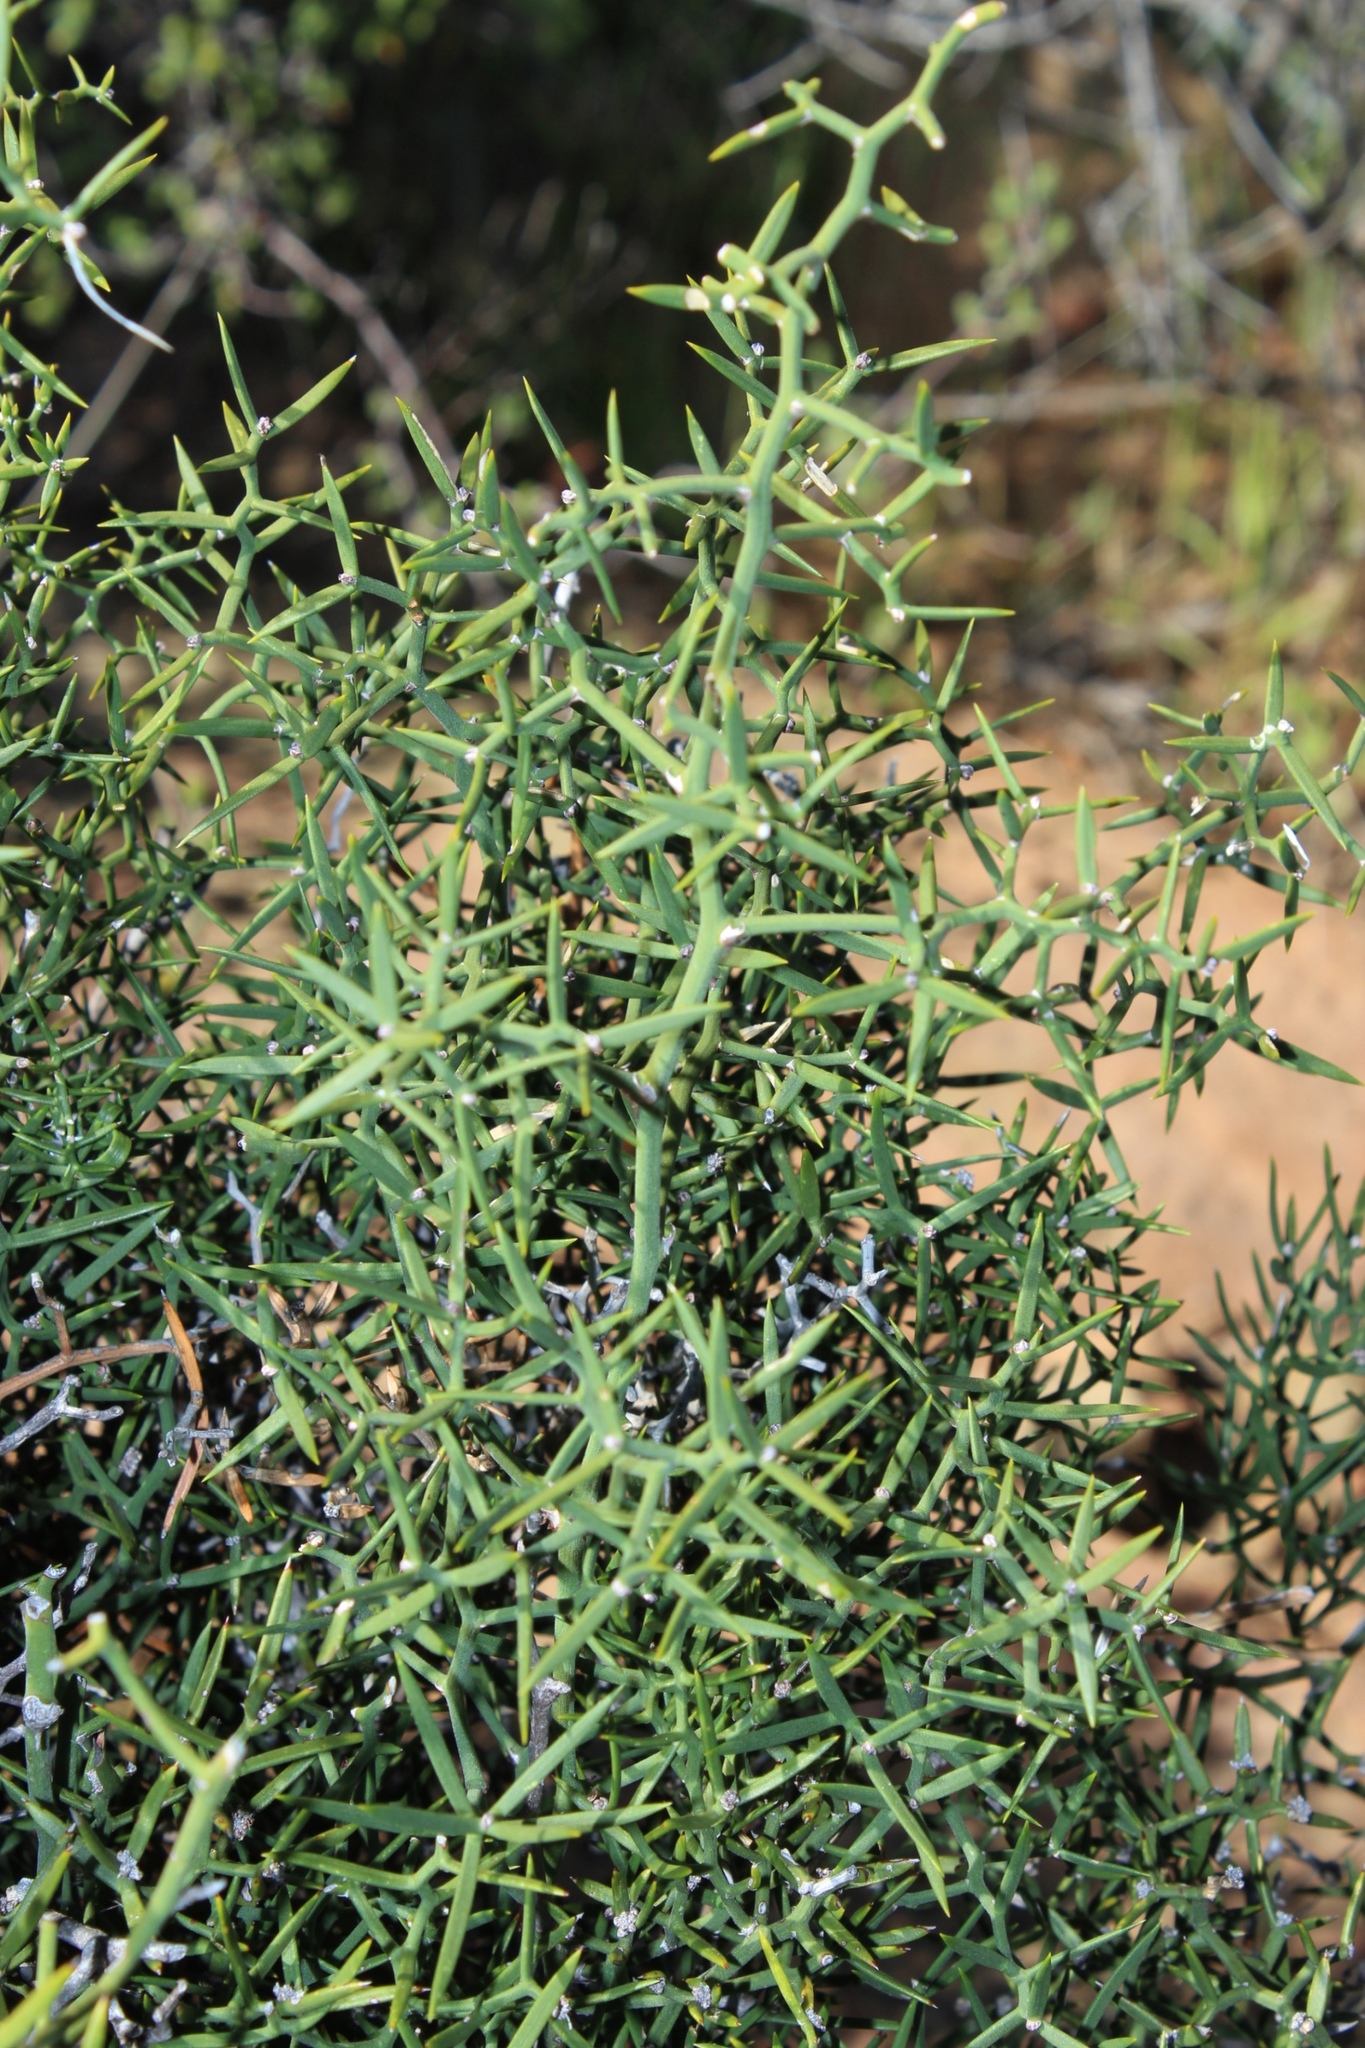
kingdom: Plantae
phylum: Tracheophyta
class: Liliopsida
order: Asparagales
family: Asparagaceae
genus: Asparagus
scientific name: Asparagus striatus
